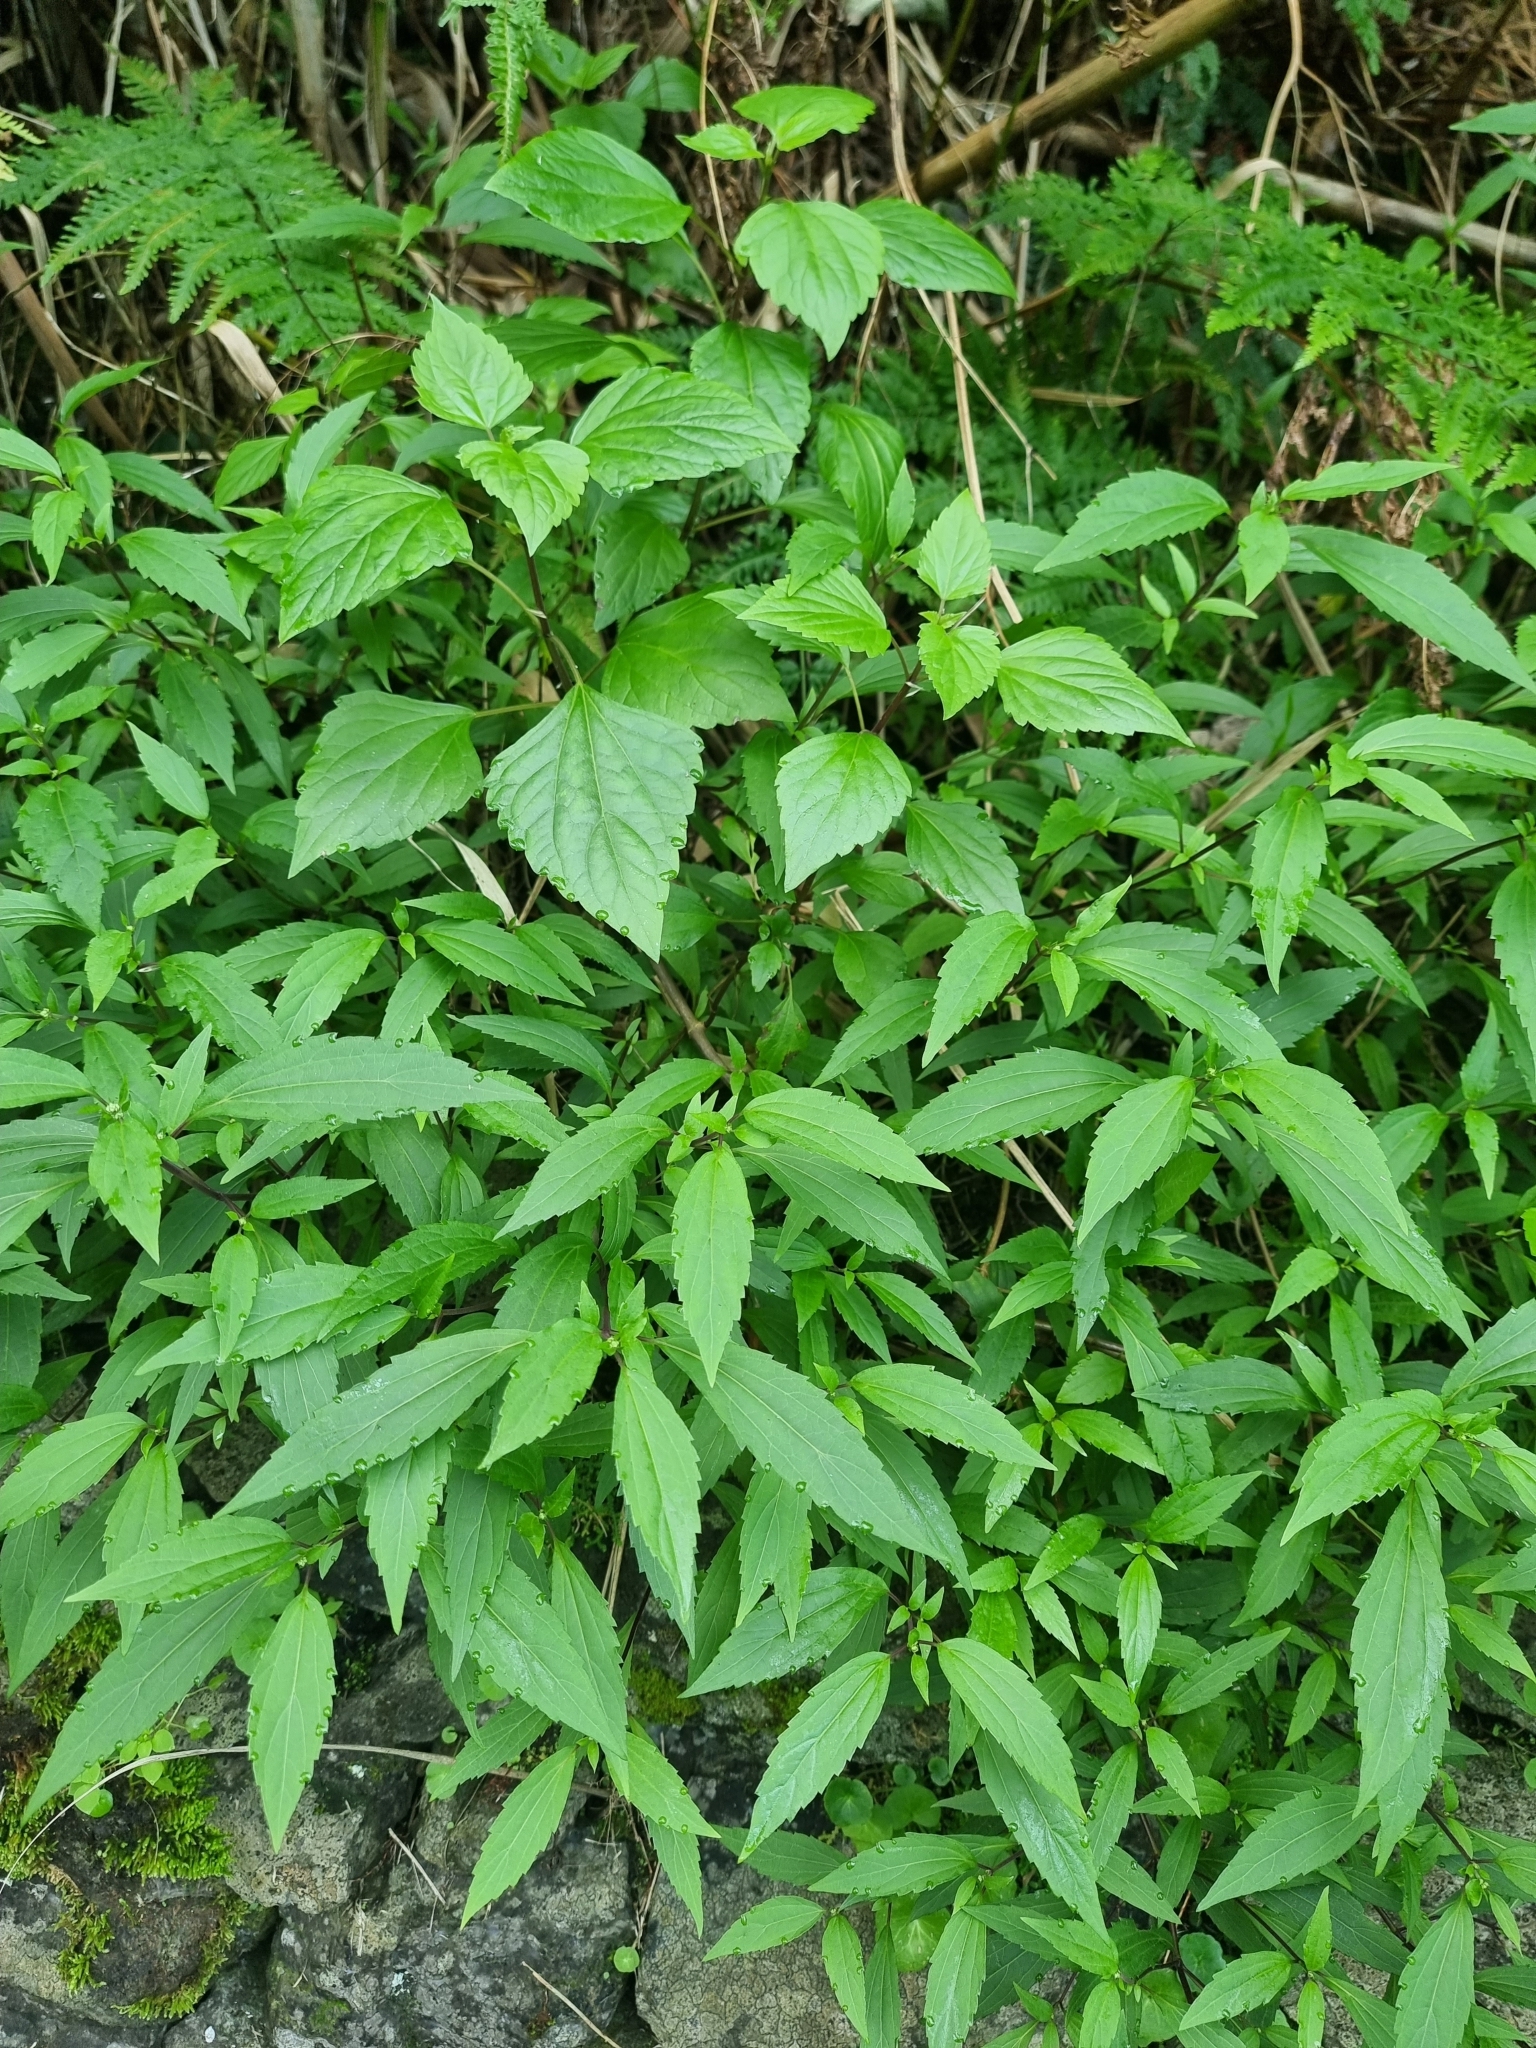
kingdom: Plantae
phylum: Tracheophyta
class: Magnoliopsida
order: Asterales
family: Asteraceae
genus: Ageratina
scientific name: Ageratina riparia
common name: Creeping croftonweed
